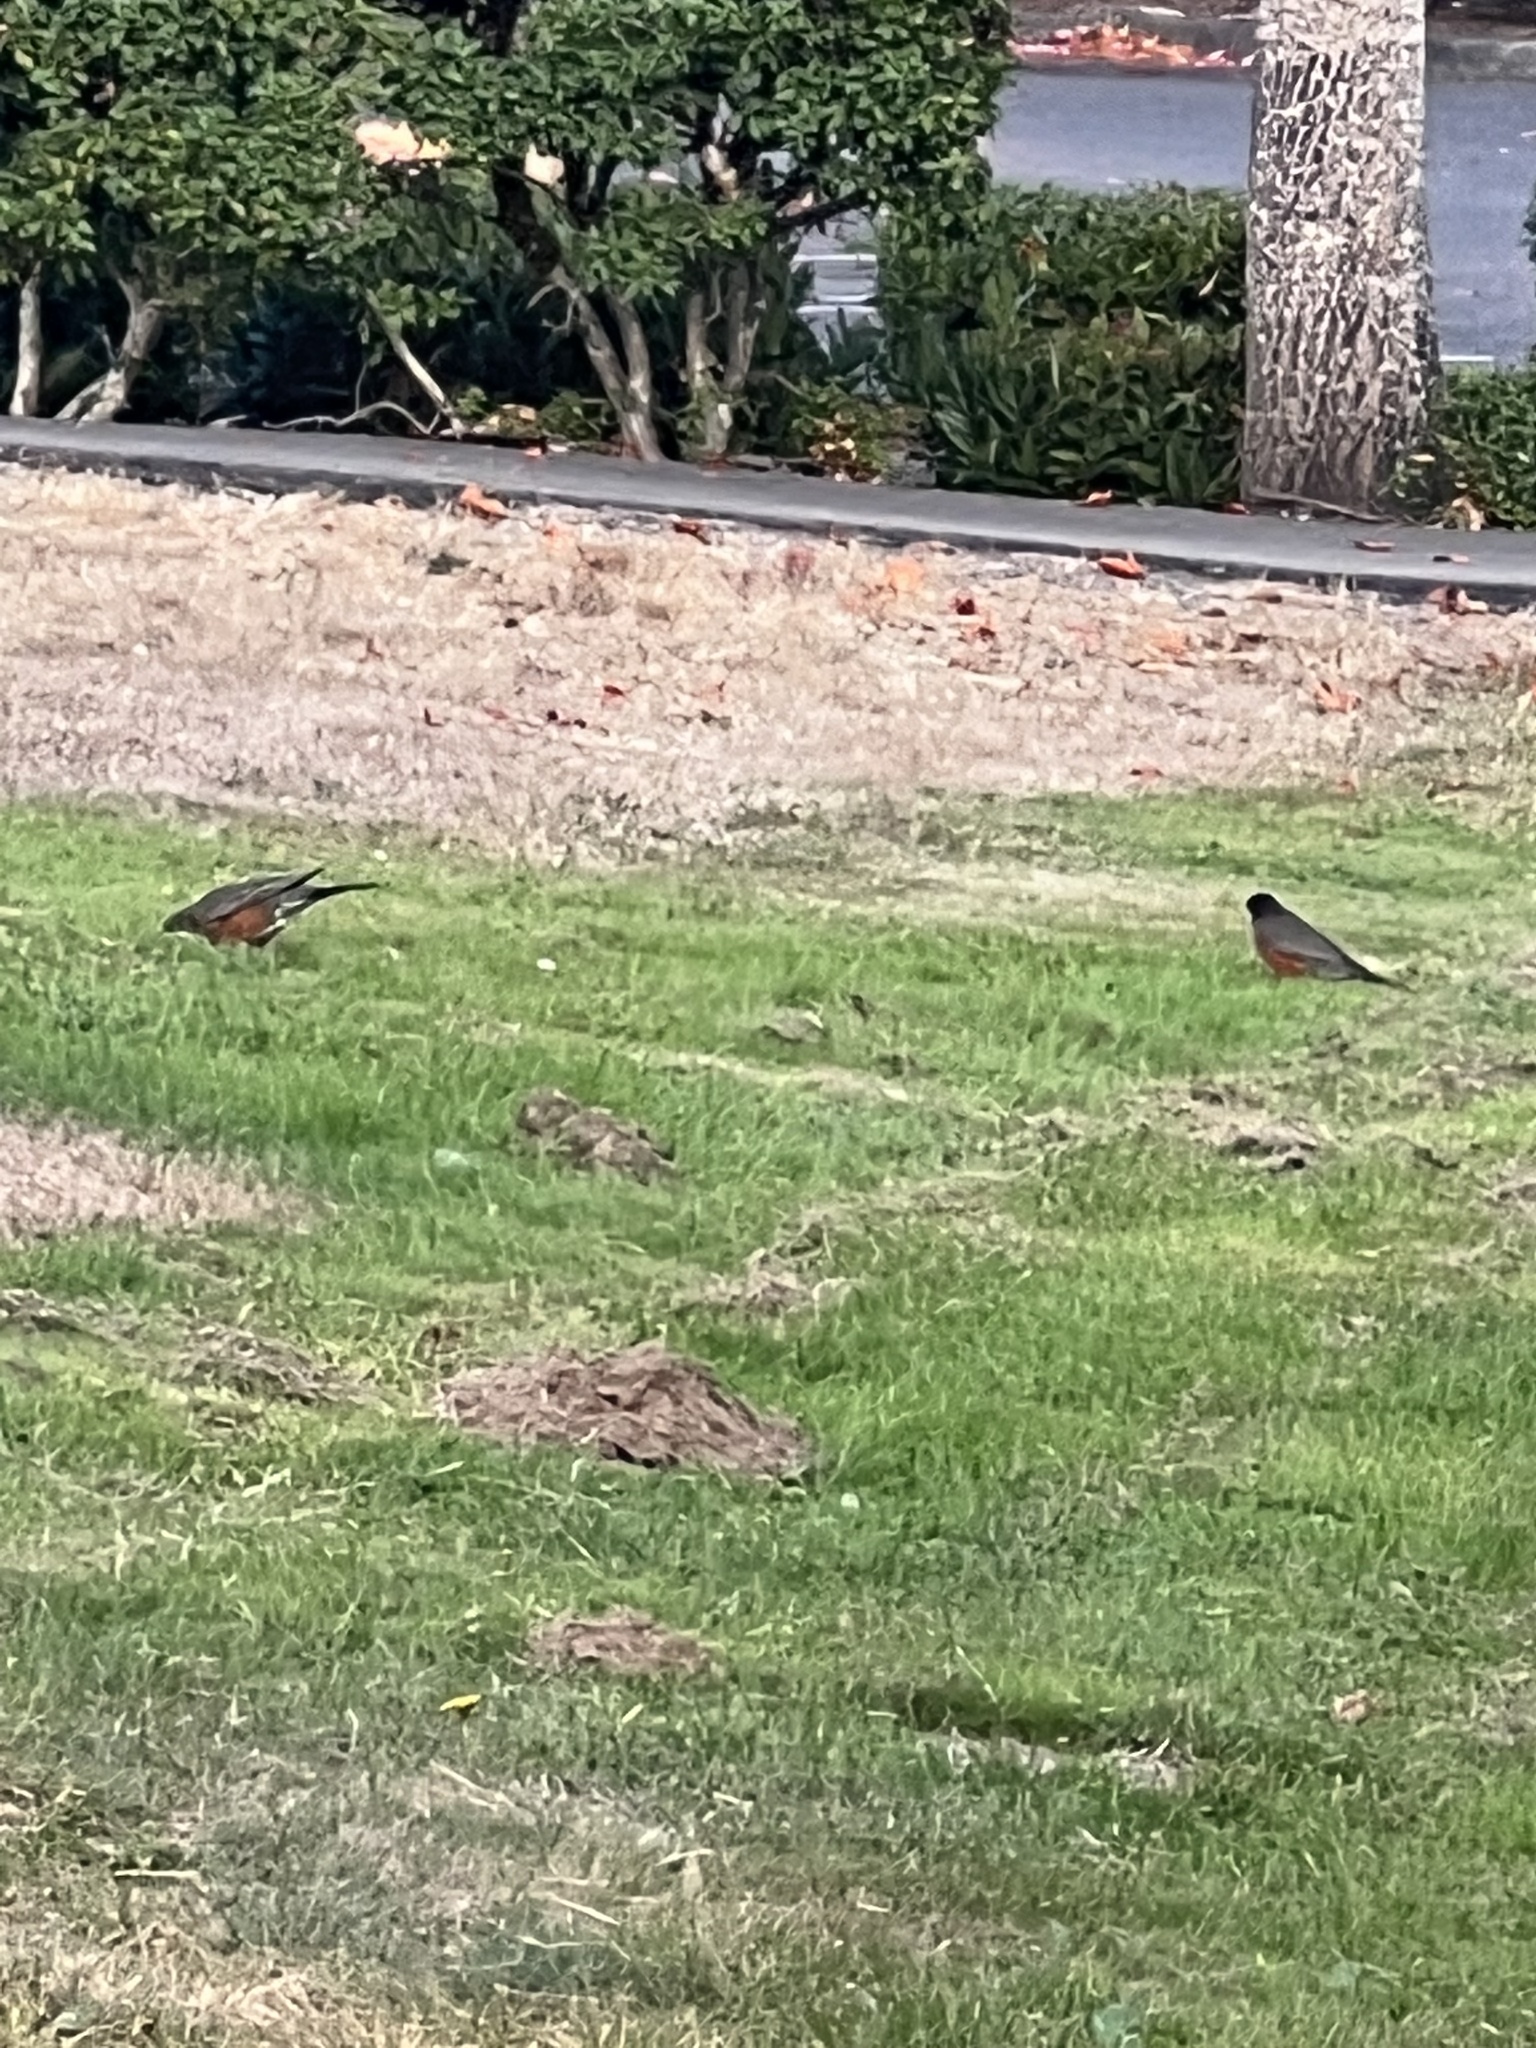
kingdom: Animalia
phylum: Chordata
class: Aves
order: Passeriformes
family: Turdidae
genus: Turdus
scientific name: Turdus migratorius
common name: American robin
